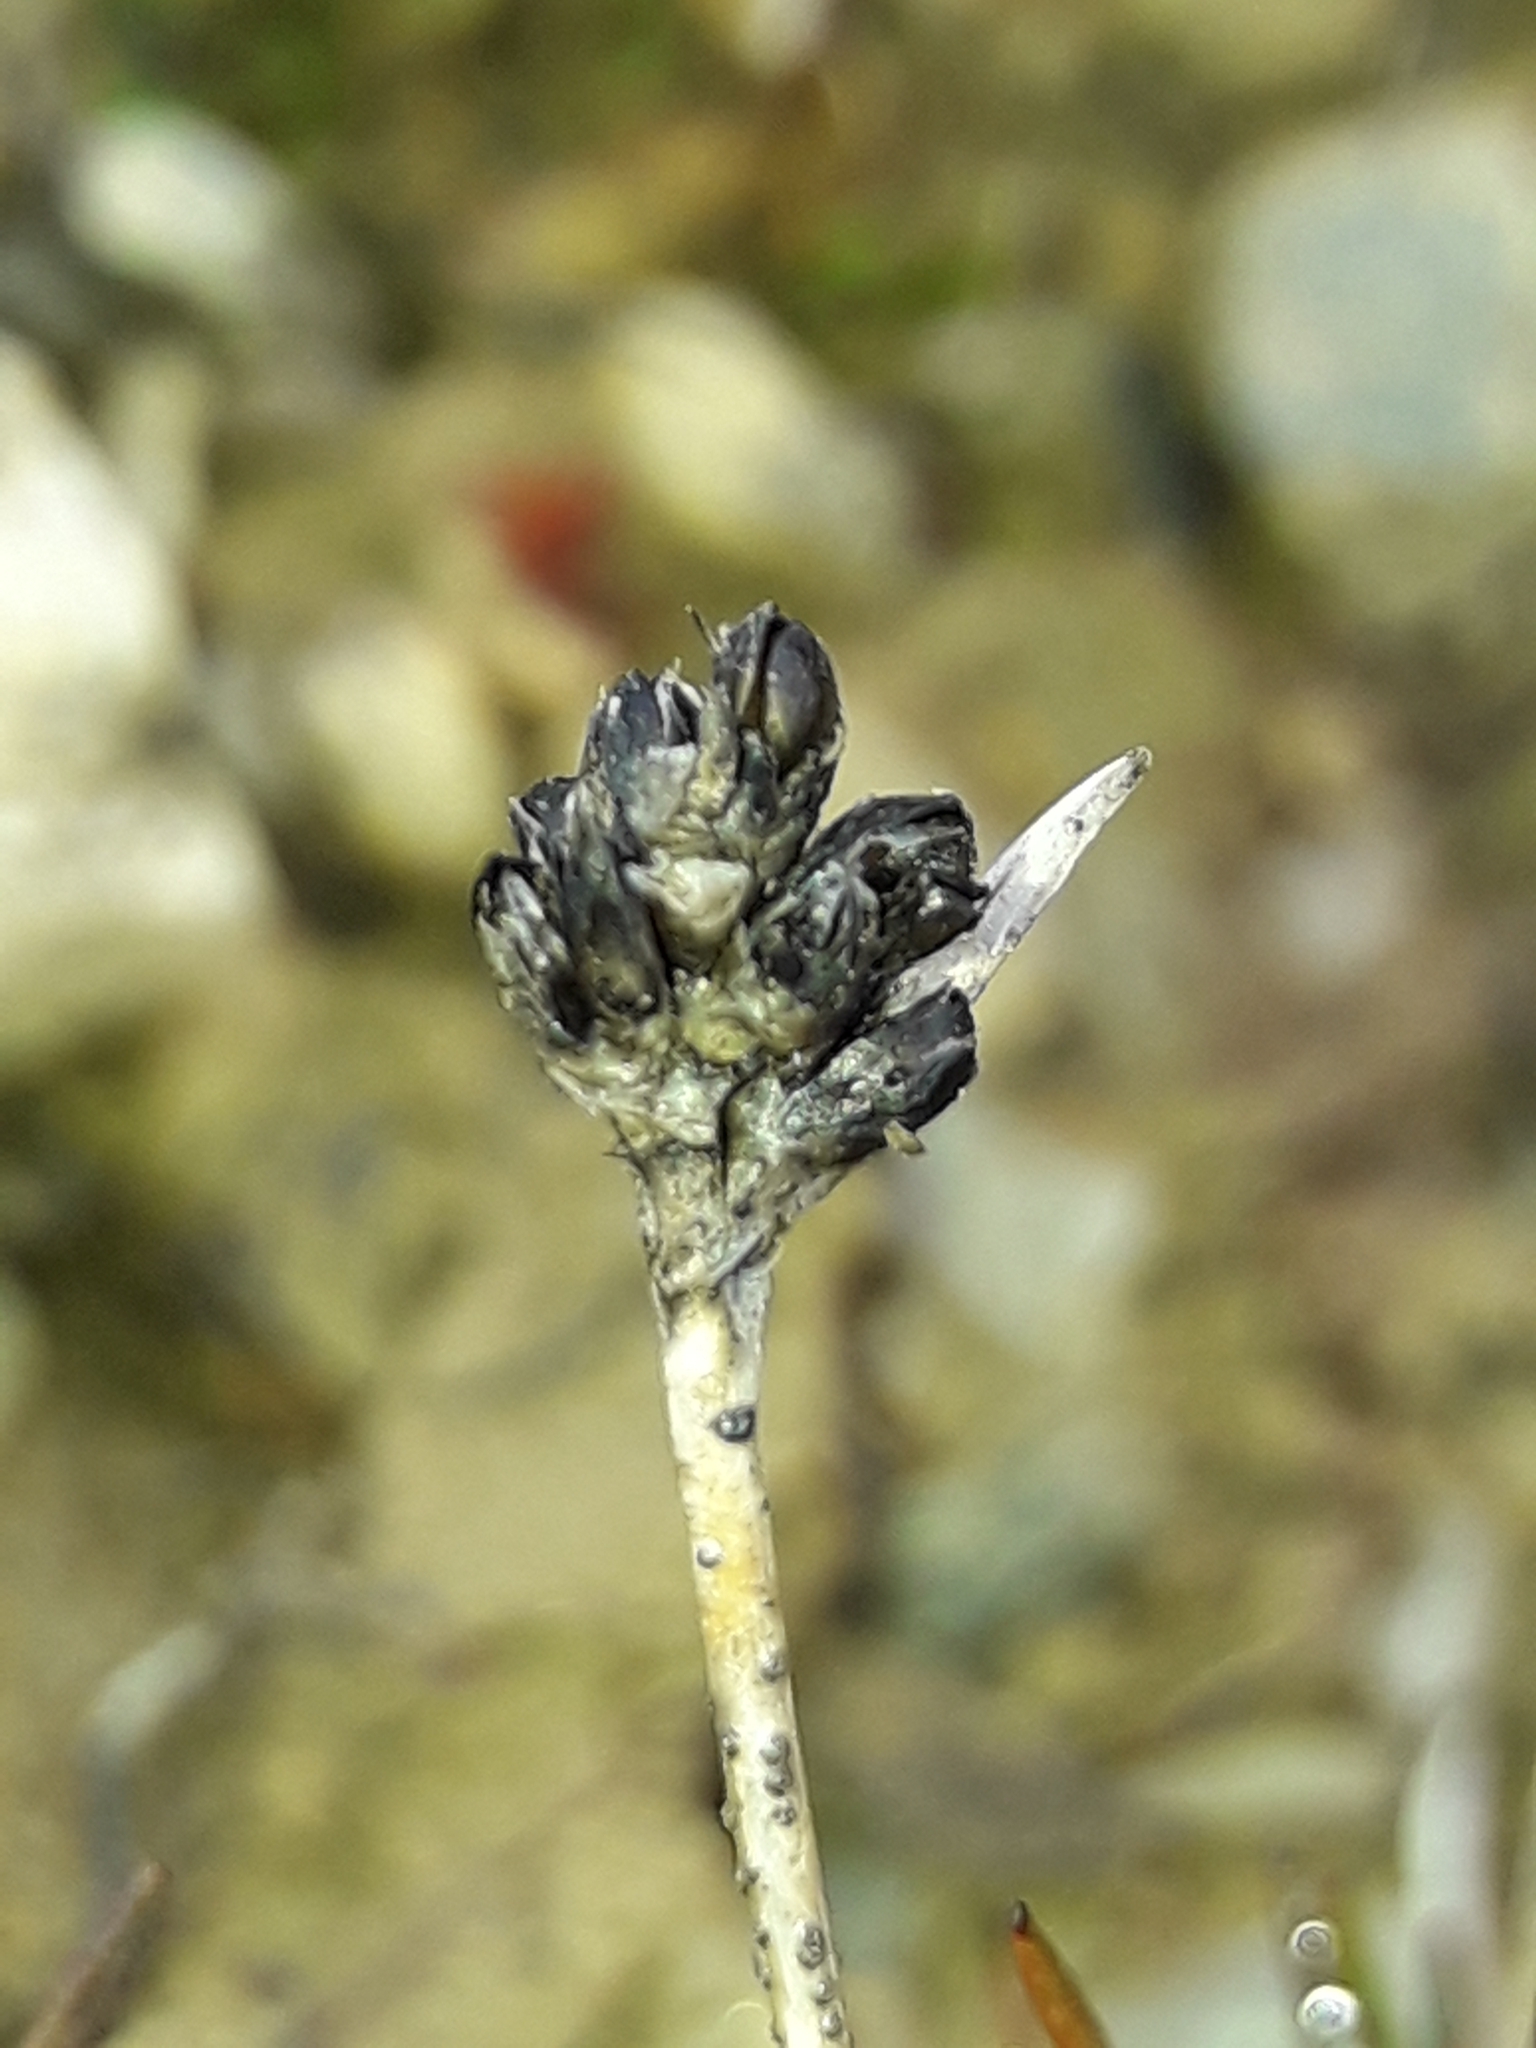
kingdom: Plantae
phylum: Tracheophyta
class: Liliopsida
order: Poales
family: Juncaceae
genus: Luzula
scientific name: Luzula pumila
